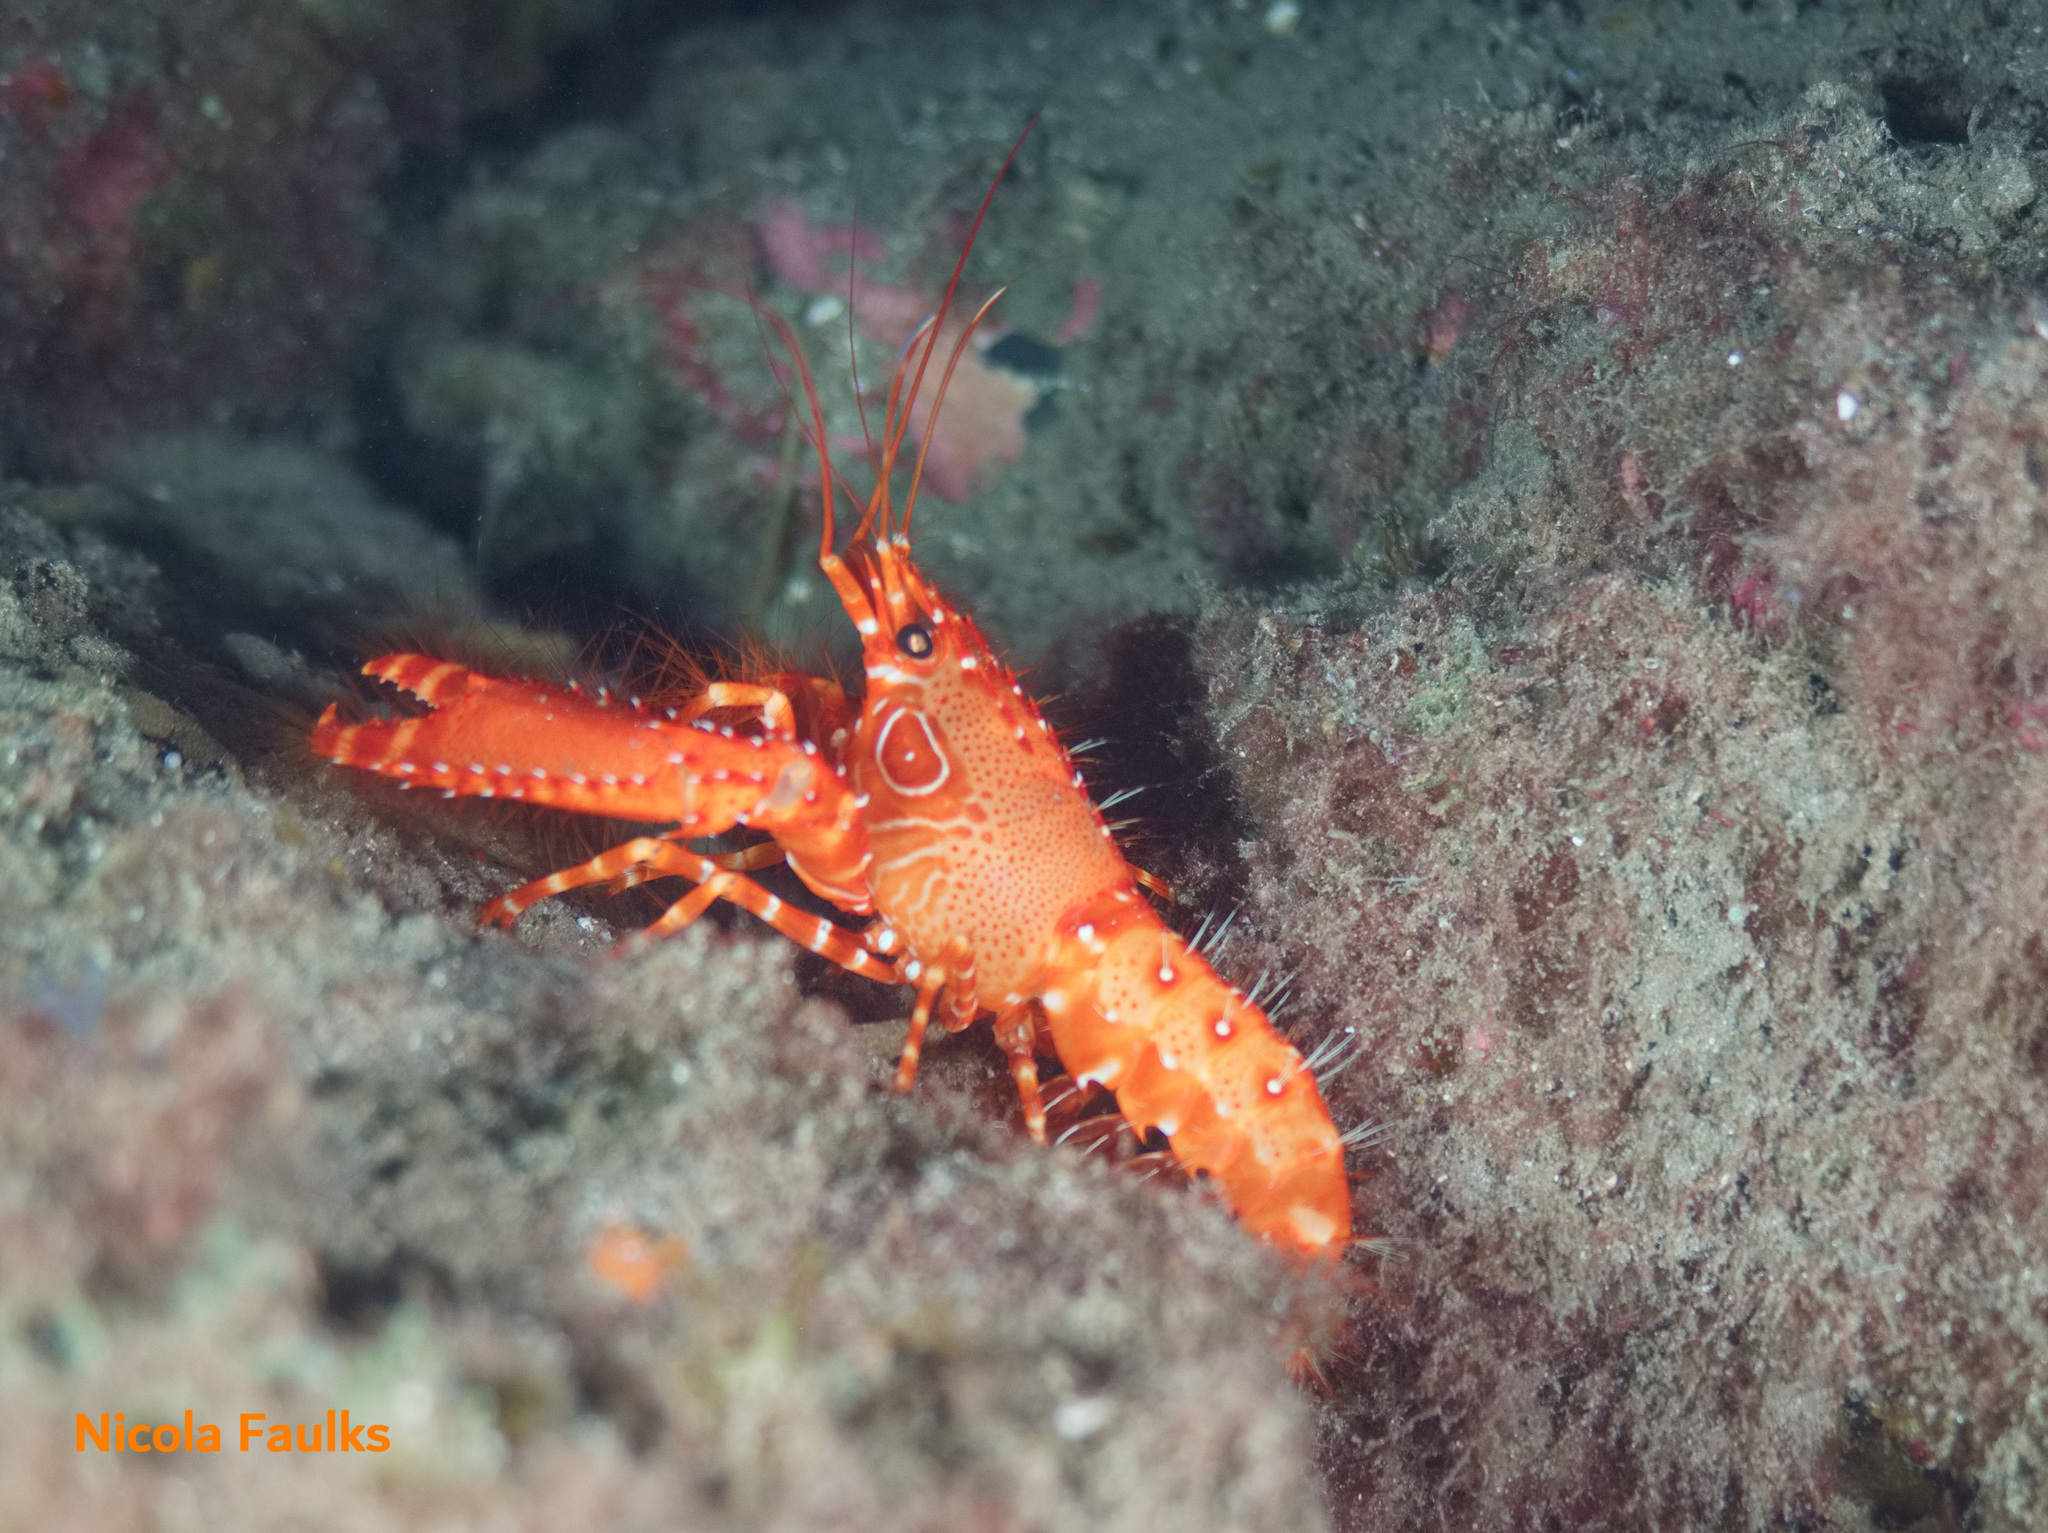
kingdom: Animalia
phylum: Arthropoda
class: Malacostraca
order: Decapoda
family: Enoplometopidae
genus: Enoplometopus
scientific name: Enoplometopus antillensis
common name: Dwarf reef lobster
